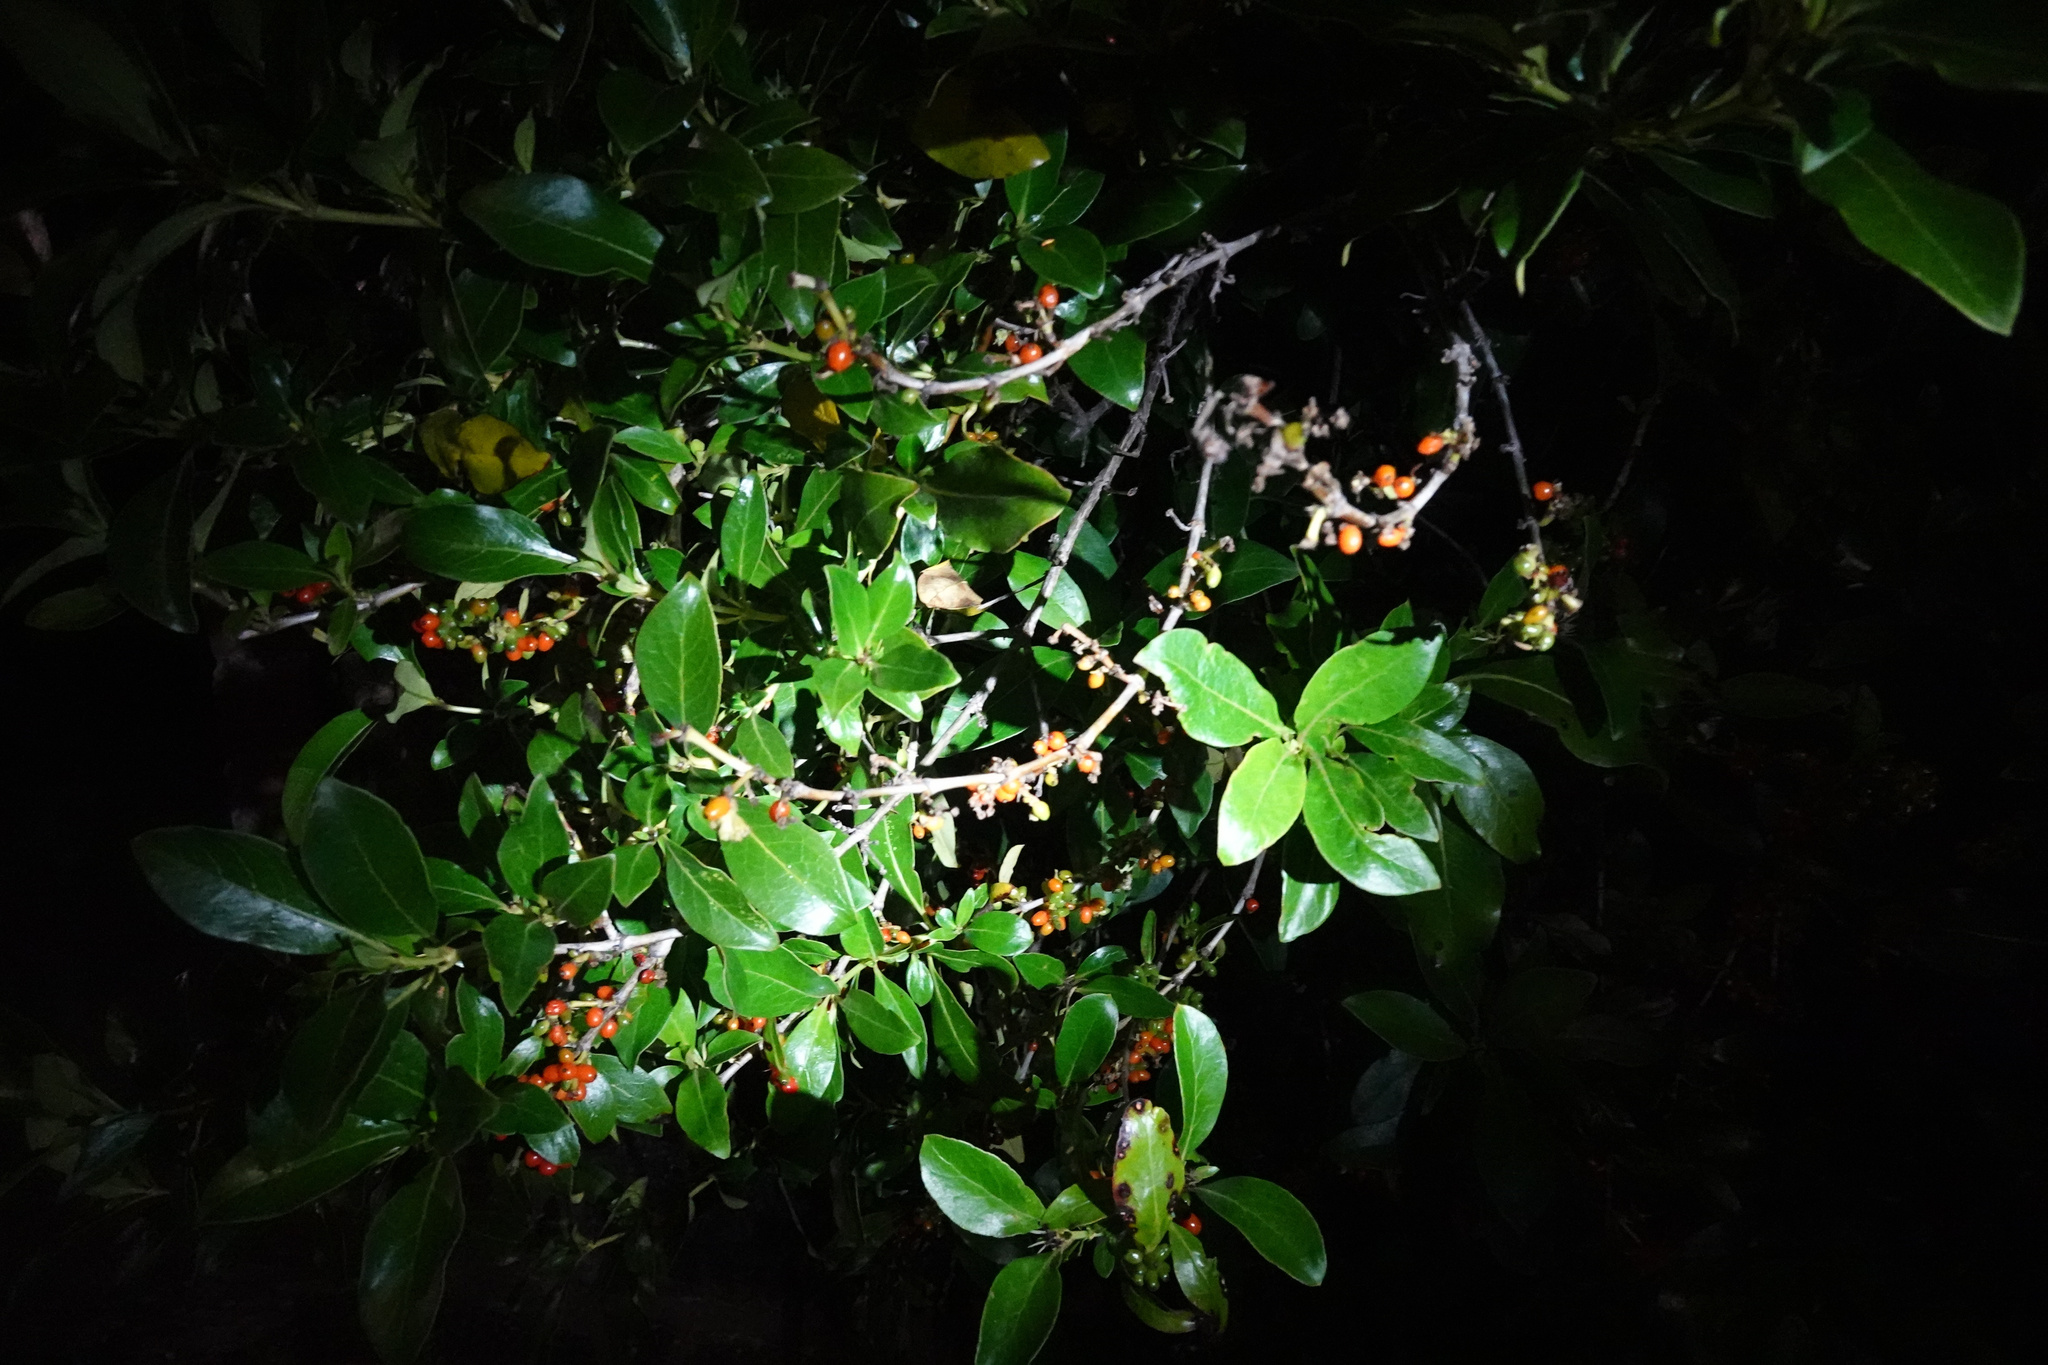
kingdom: Plantae
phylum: Tracheophyta
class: Magnoliopsida
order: Gentianales
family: Rubiaceae
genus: Coprosma
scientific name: Coprosma robusta
